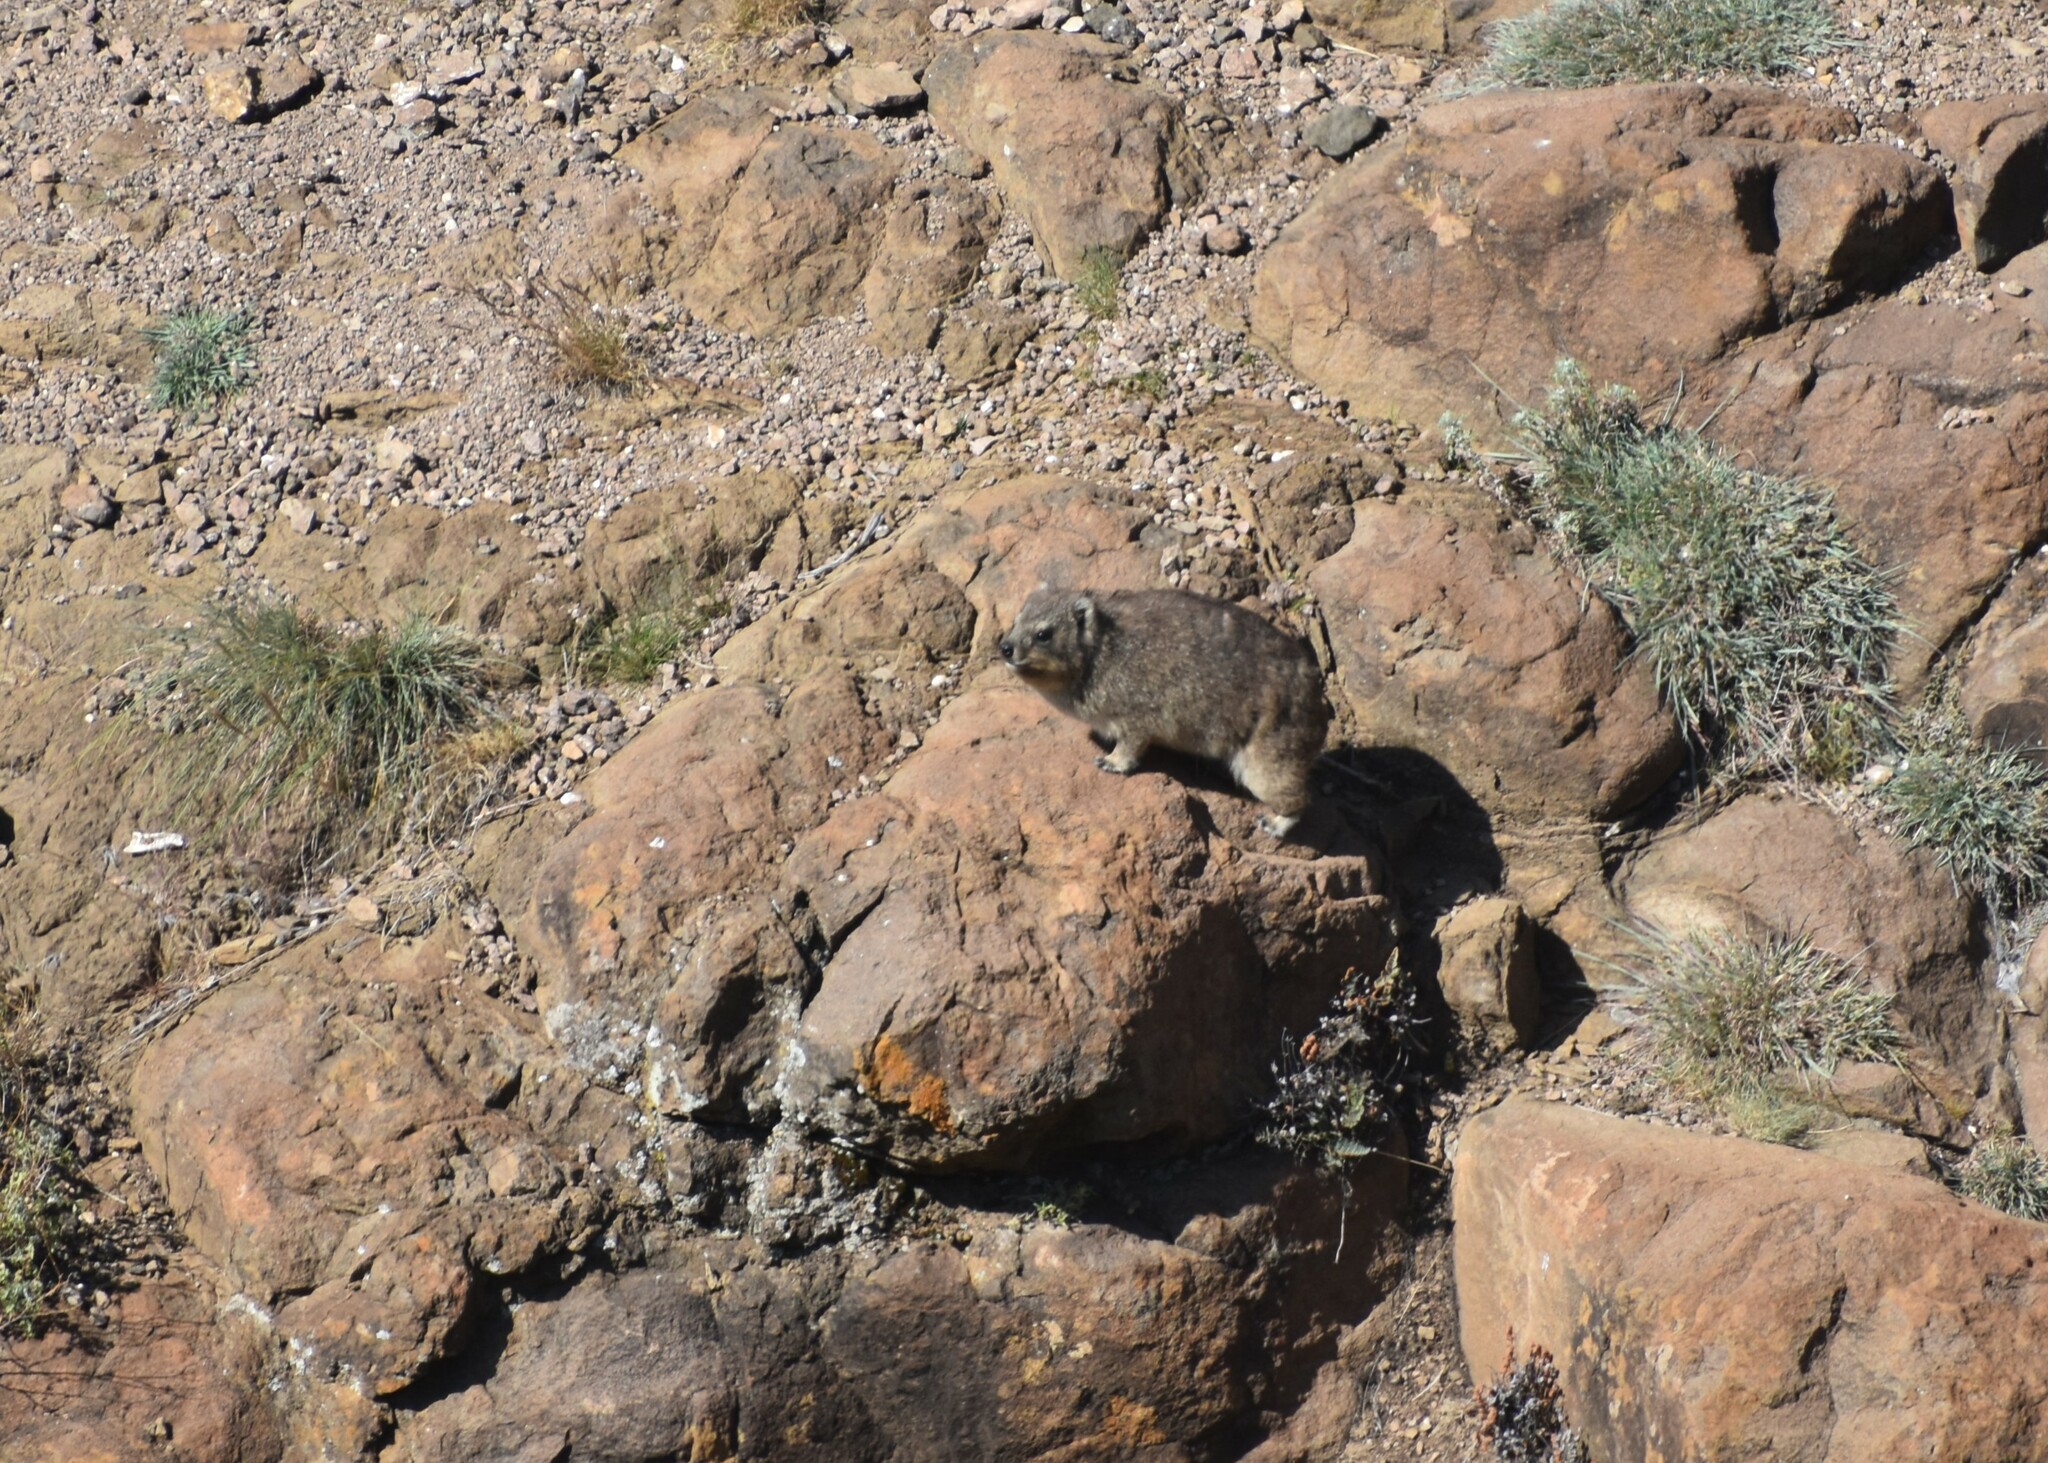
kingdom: Animalia
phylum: Chordata
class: Mammalia
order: Hyracoidea
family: Procaviidae
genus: Procavia
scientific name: Procavia capensis
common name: Rock hyrax
